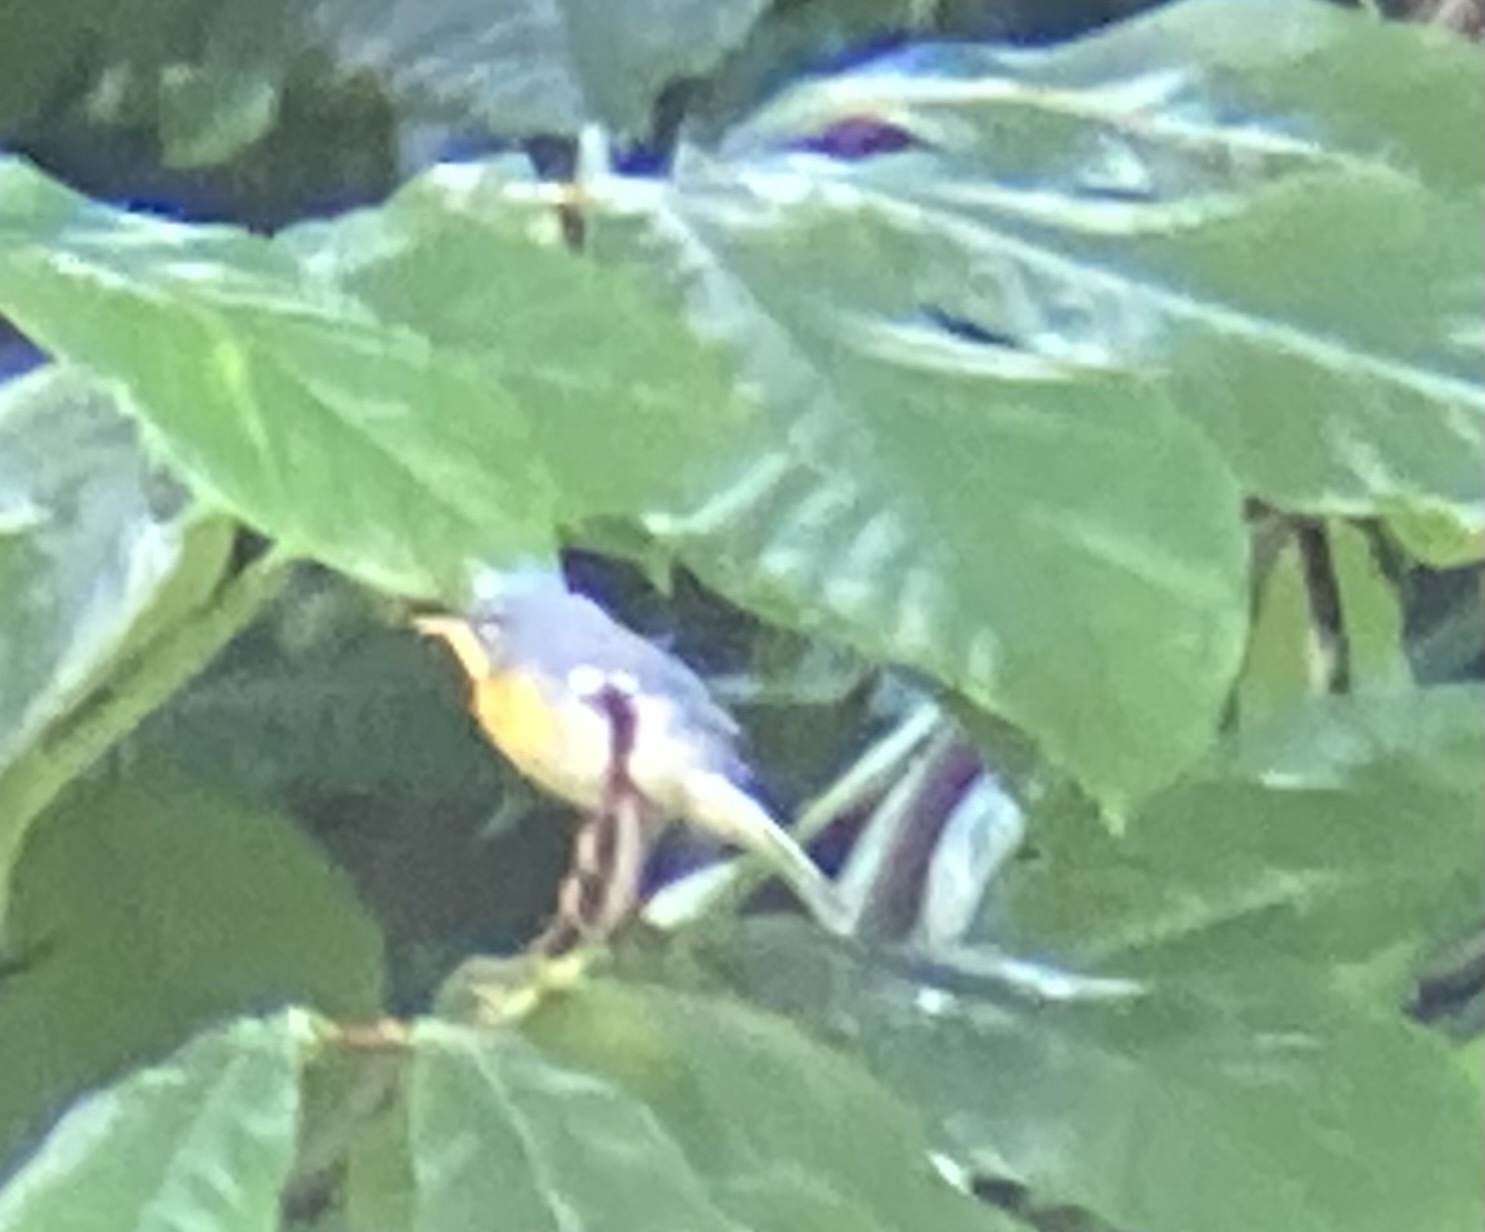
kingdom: Animalia
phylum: Chordata
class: Aves
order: Passeriformes
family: Parulidae
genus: Setophaga
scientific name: Setophaga americana
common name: Northern parula
